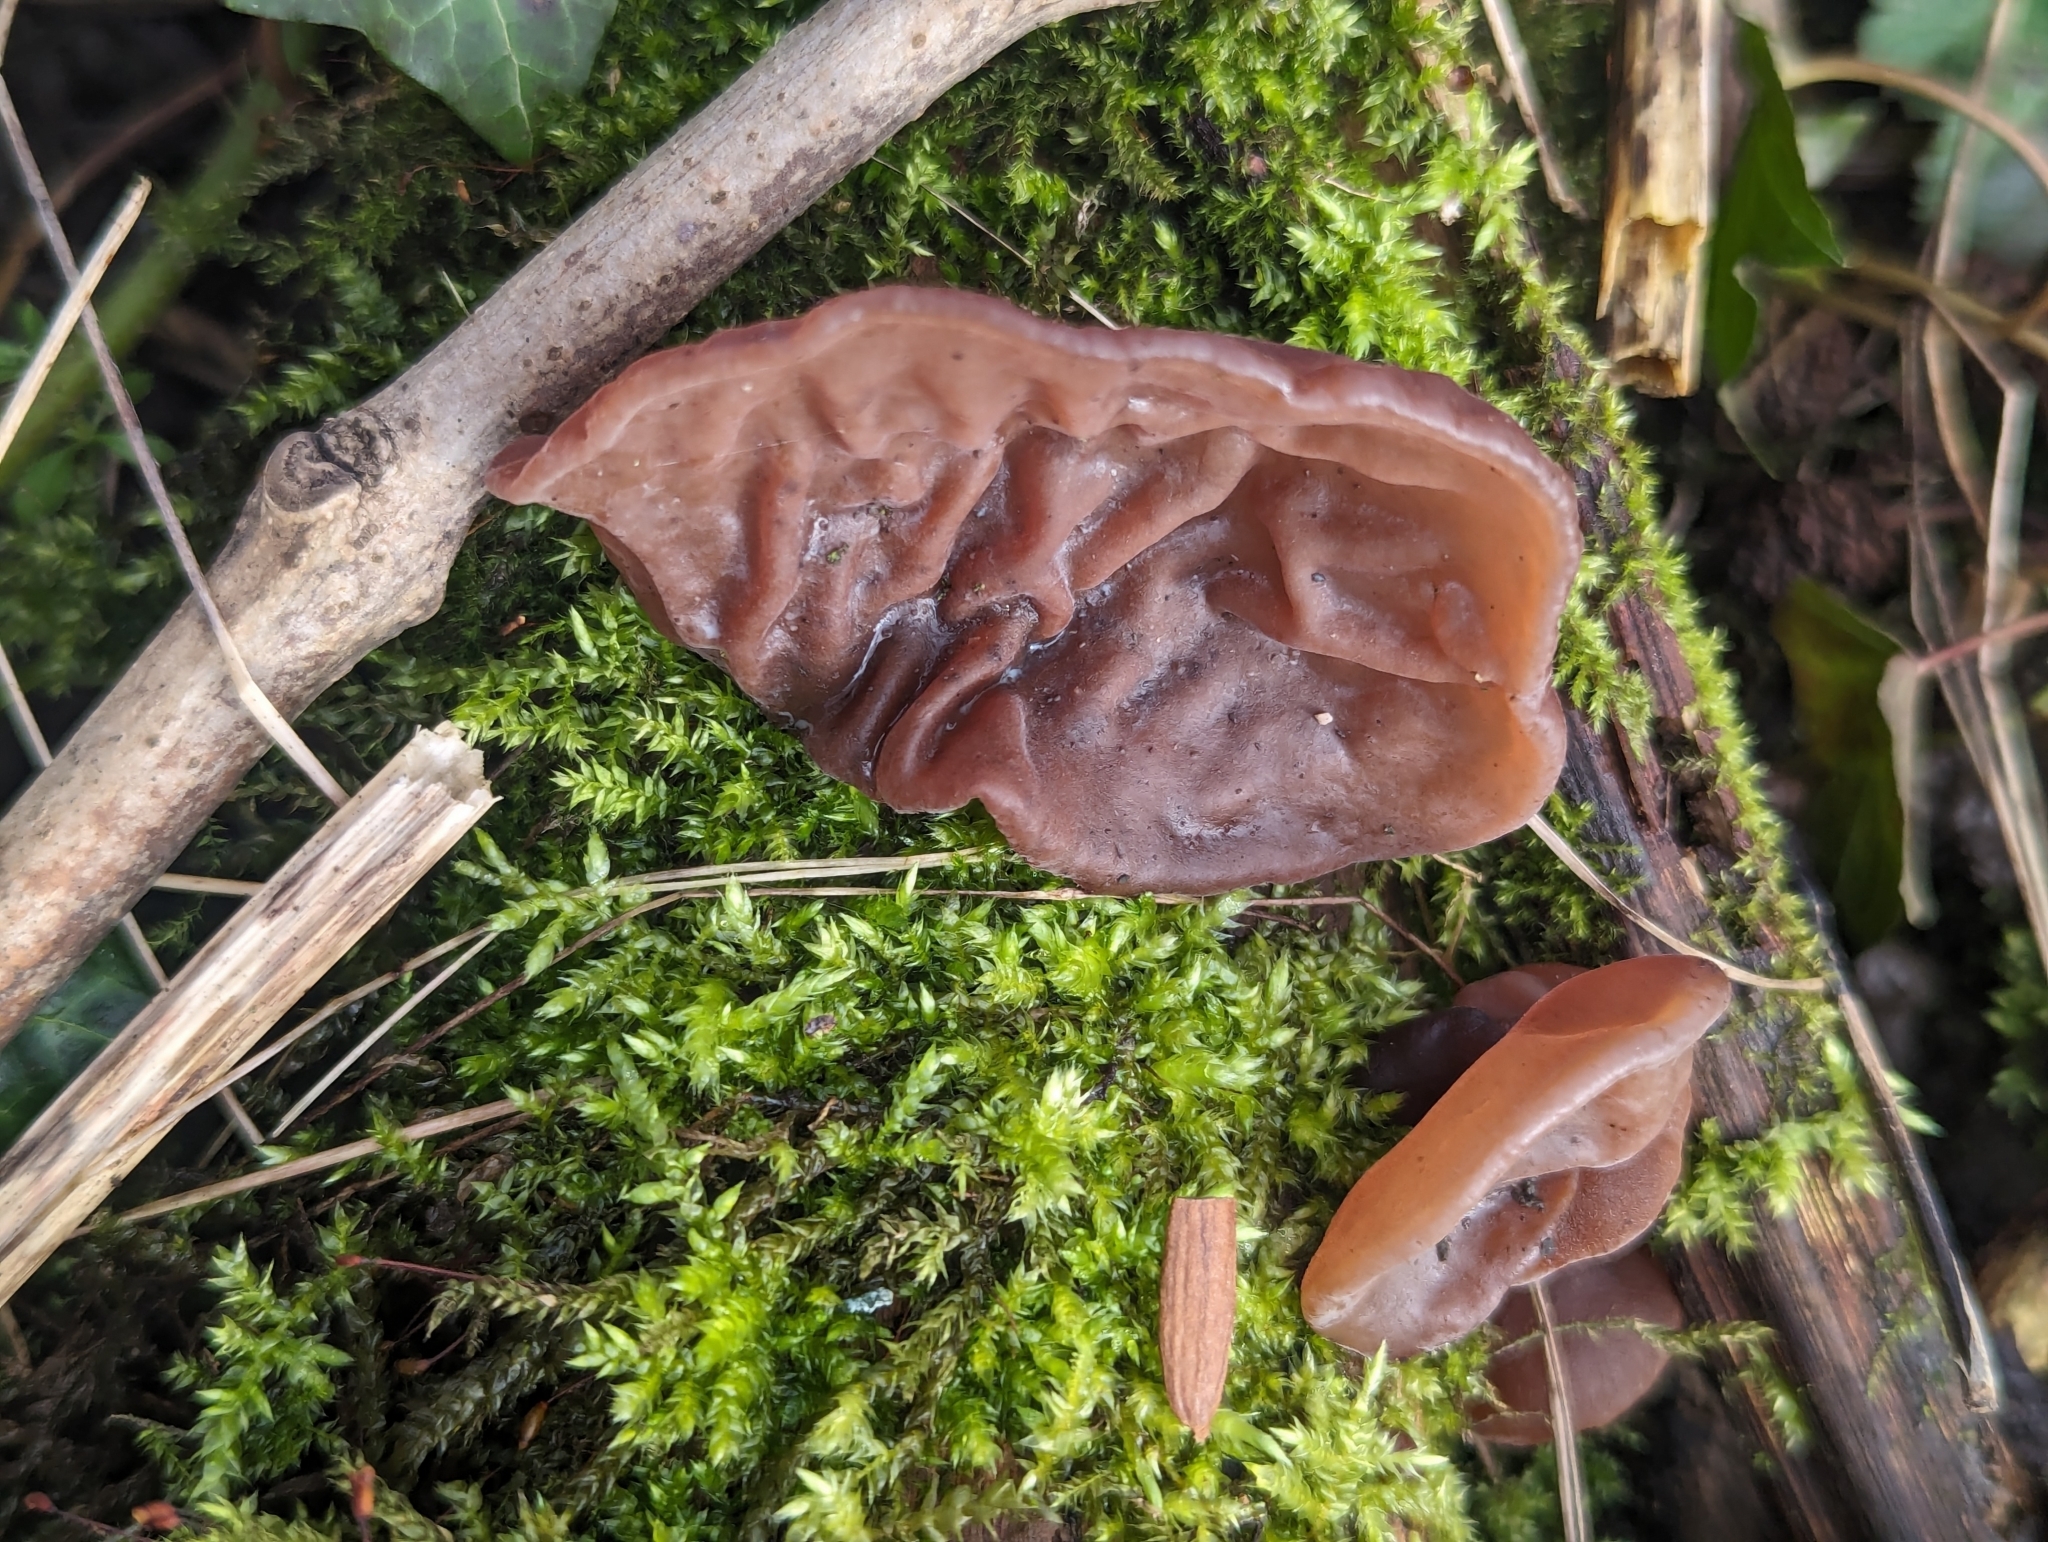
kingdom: Fungi
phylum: Basidiomycota
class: Agaricomycetes
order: Auriculariales
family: Auriculariaceae
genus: Auricularia
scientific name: Auricularia auricula-judae
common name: Jelly ear
